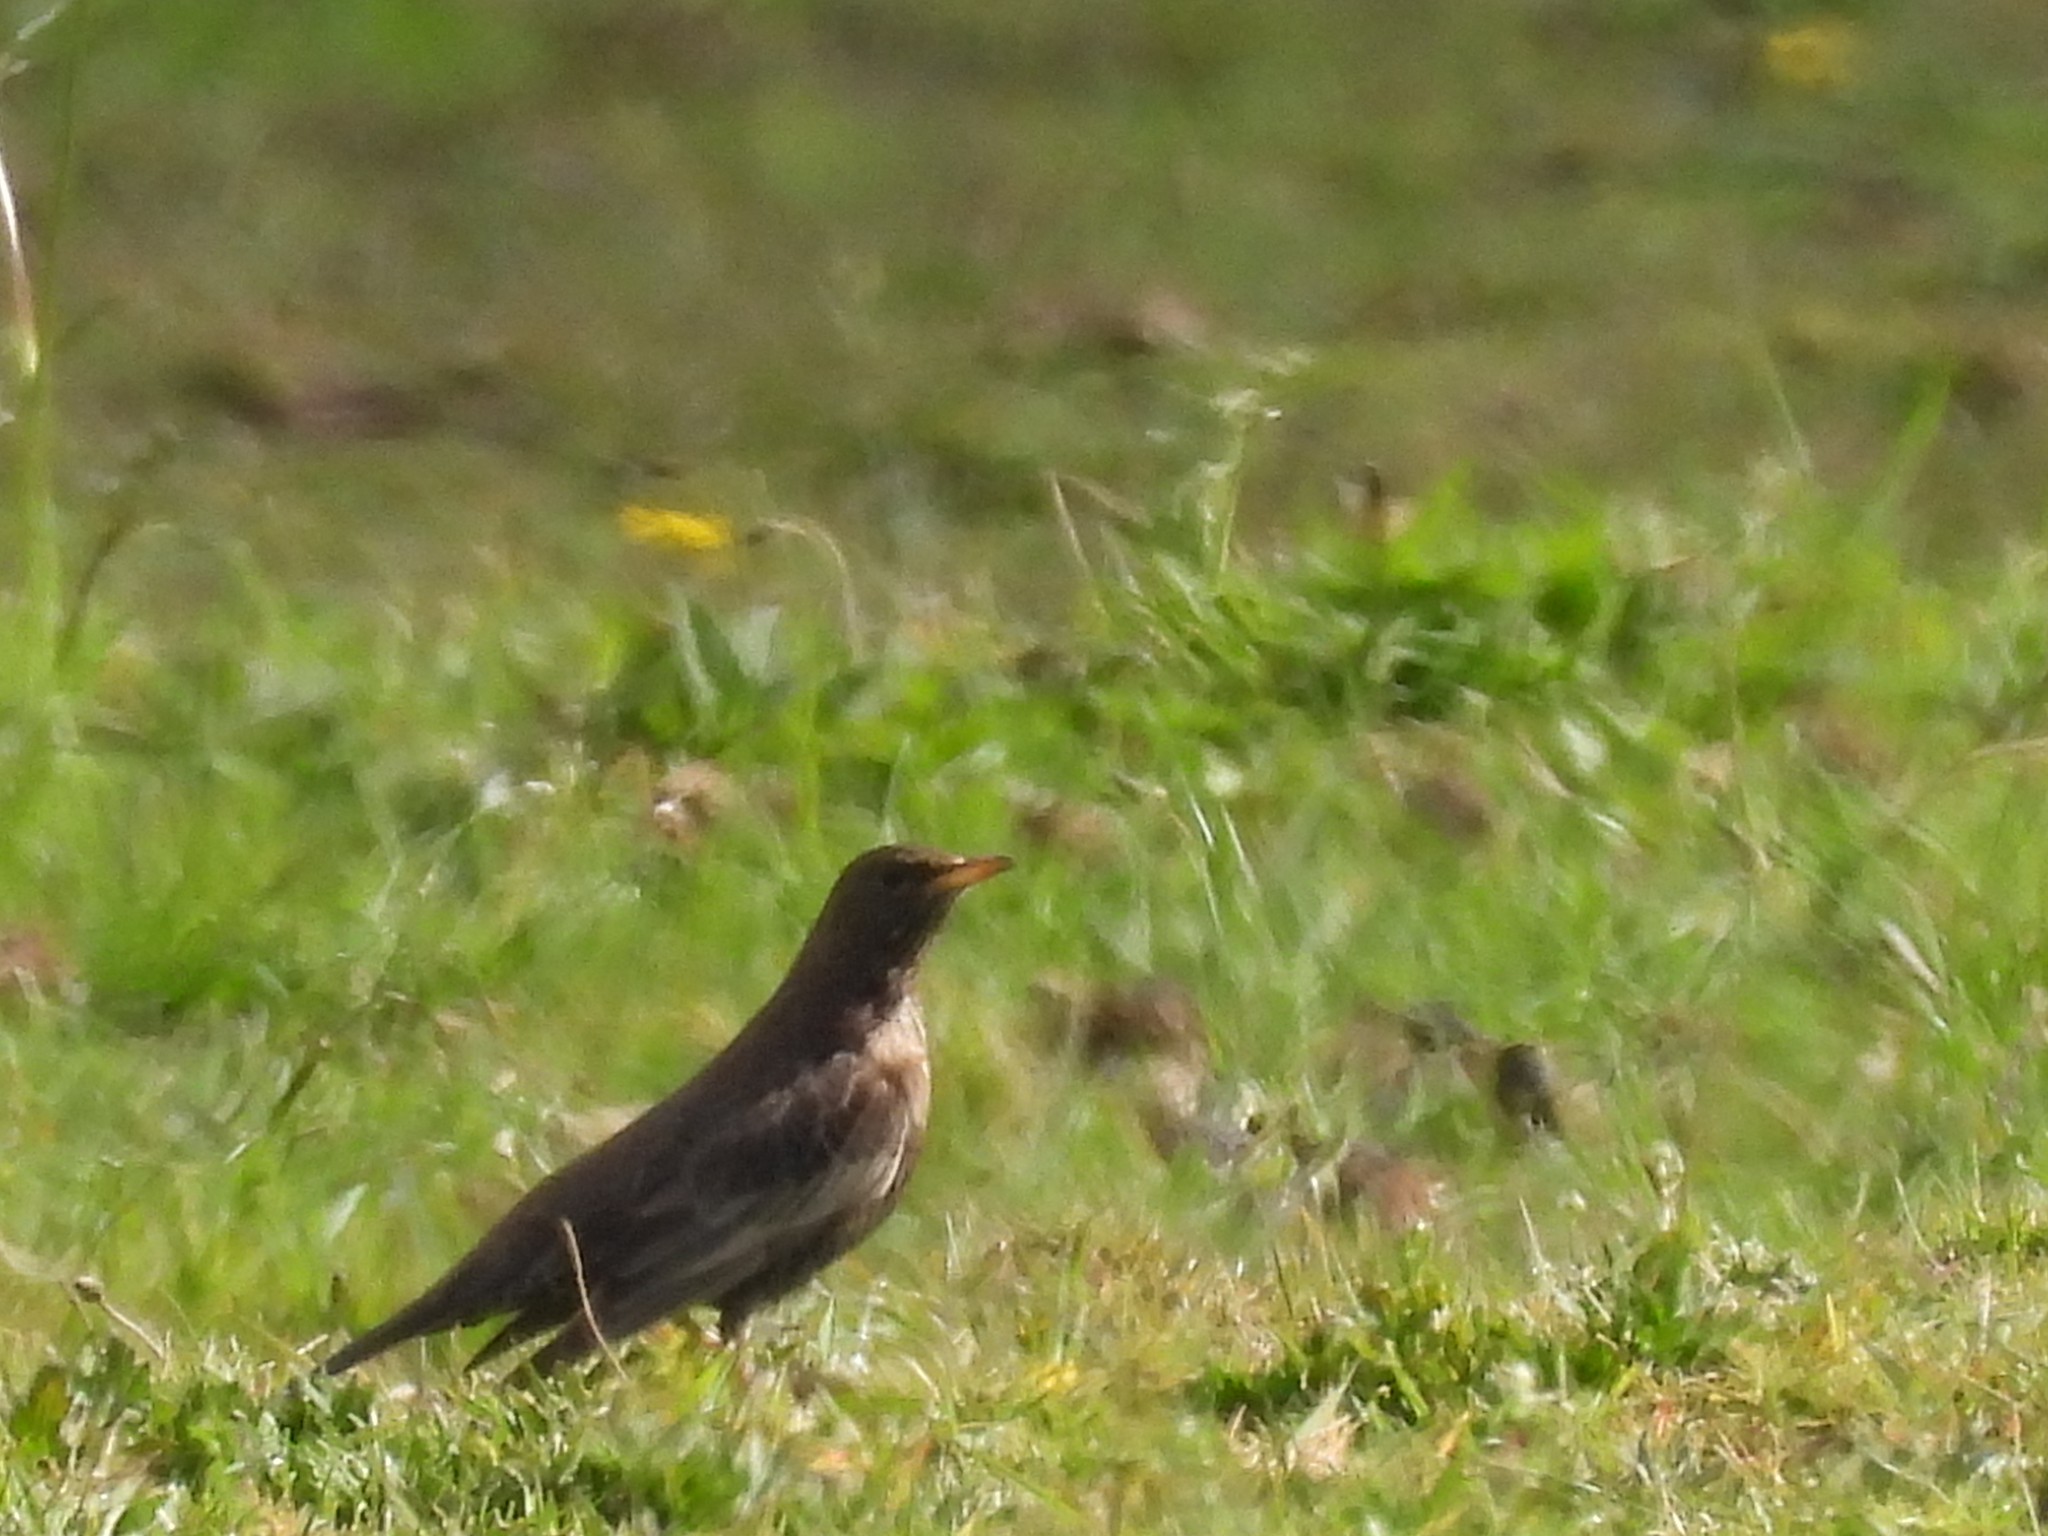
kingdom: Animalia
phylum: Chordata
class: Aves
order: Passeriformes
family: Turdidae
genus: Turdus
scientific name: Turdus torquatus
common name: Ring ouzel
